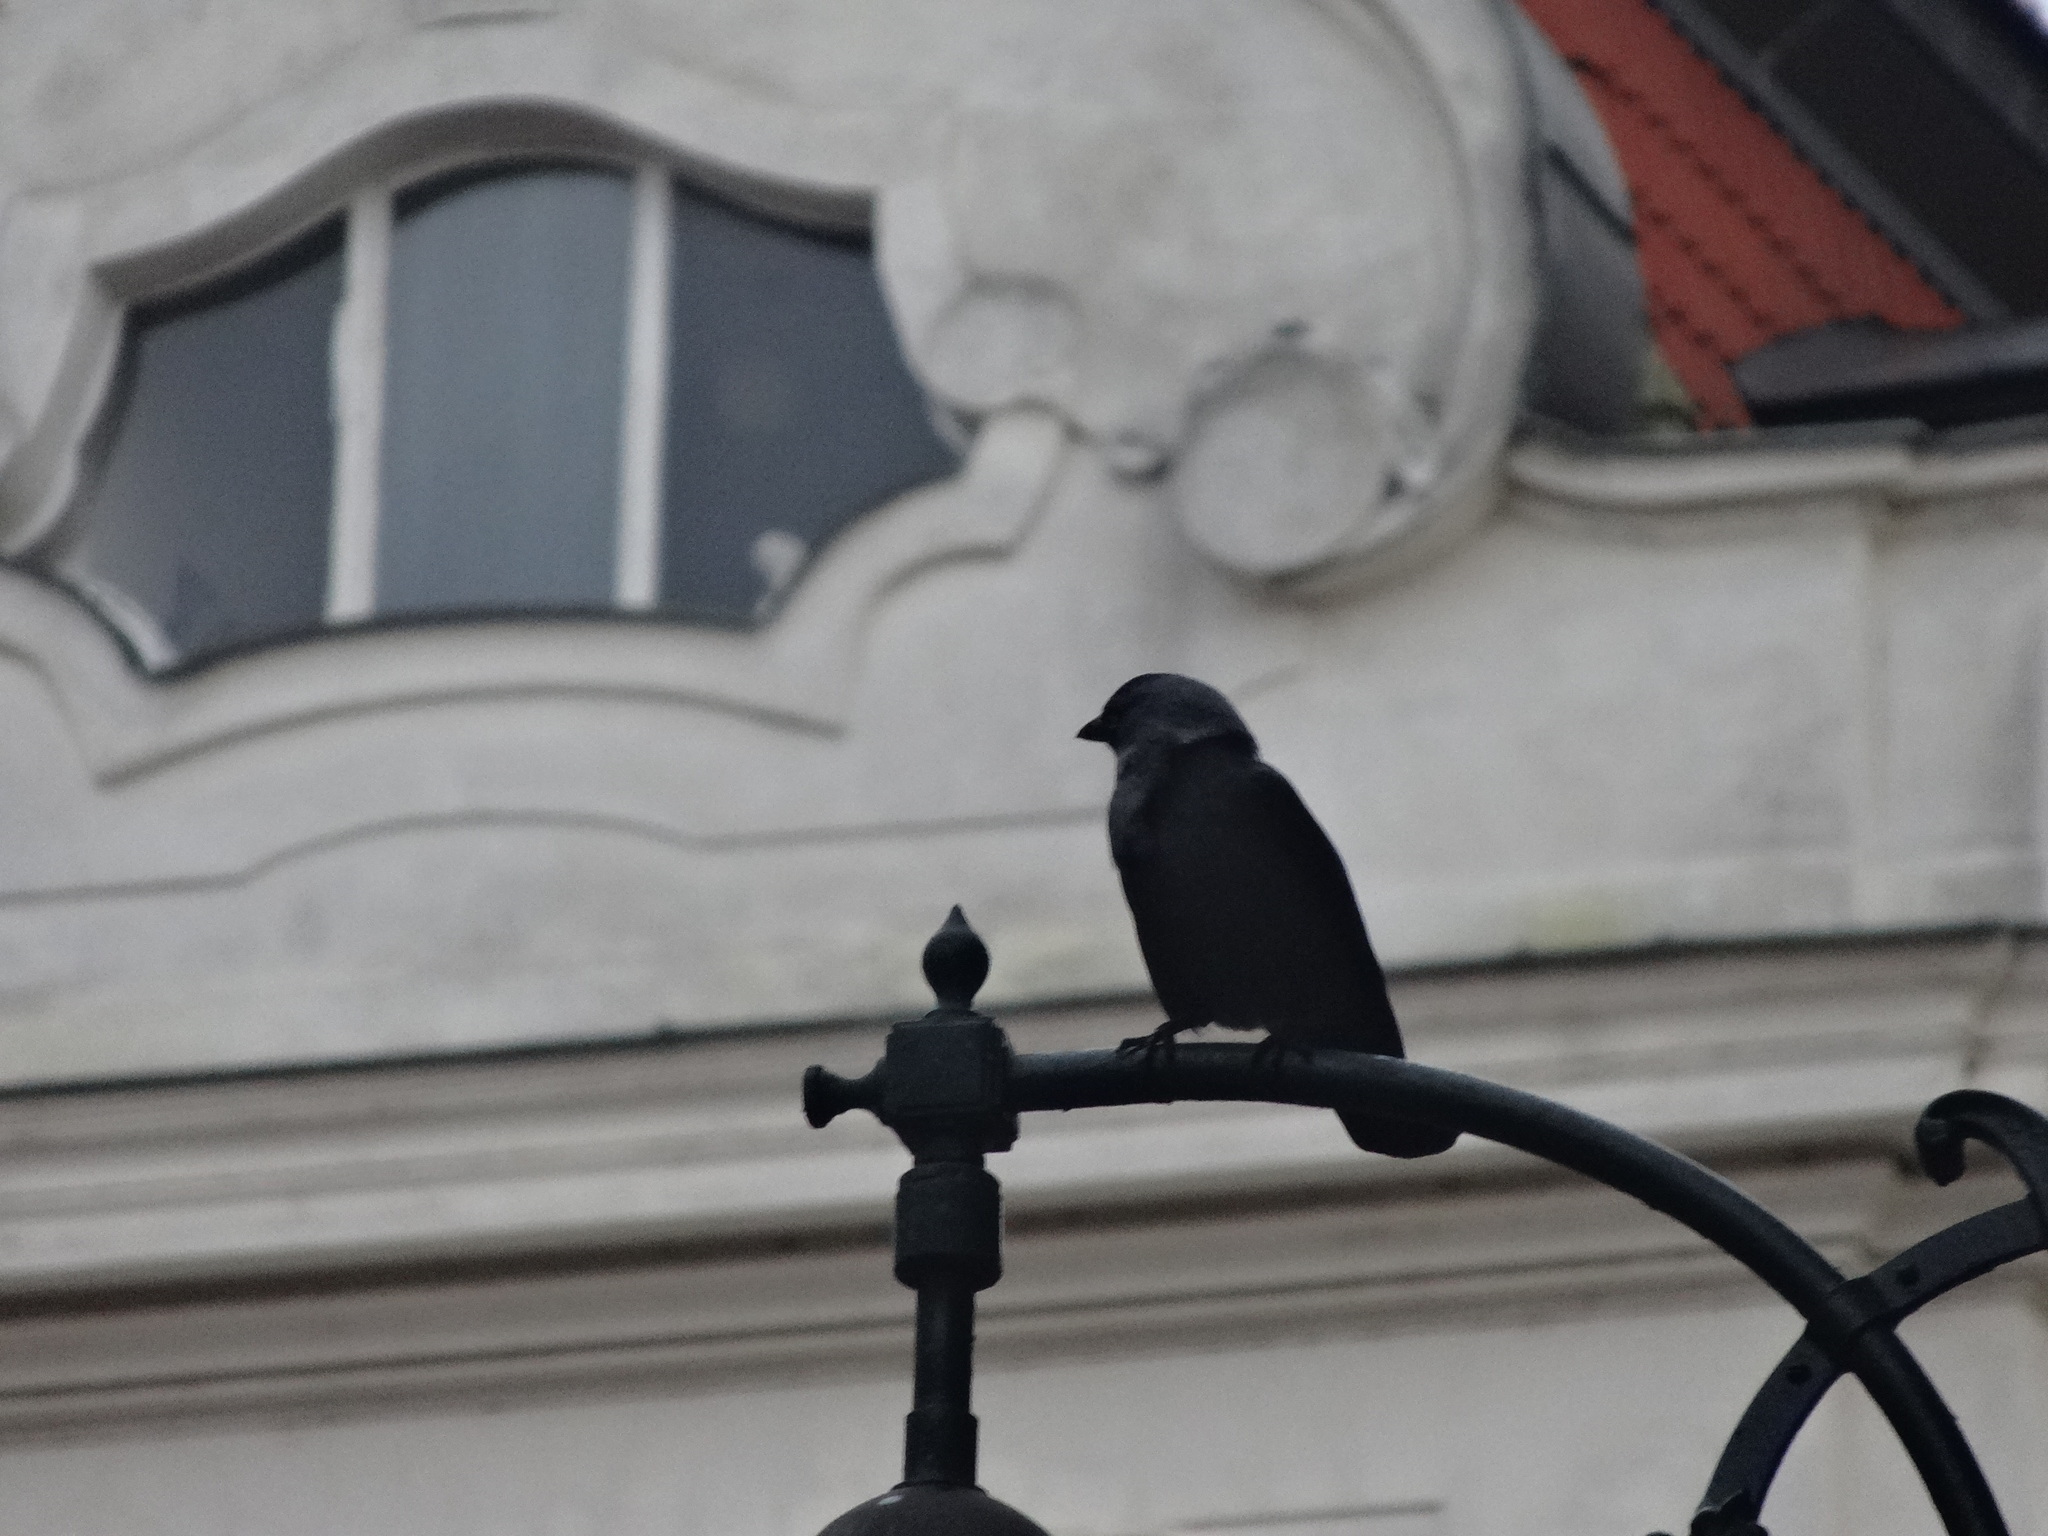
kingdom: Animalia
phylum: Chordata
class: Aves
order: Passeriformes
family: Corvidae
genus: Coloeus
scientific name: Coloeus monedula
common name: Western jackdaw
